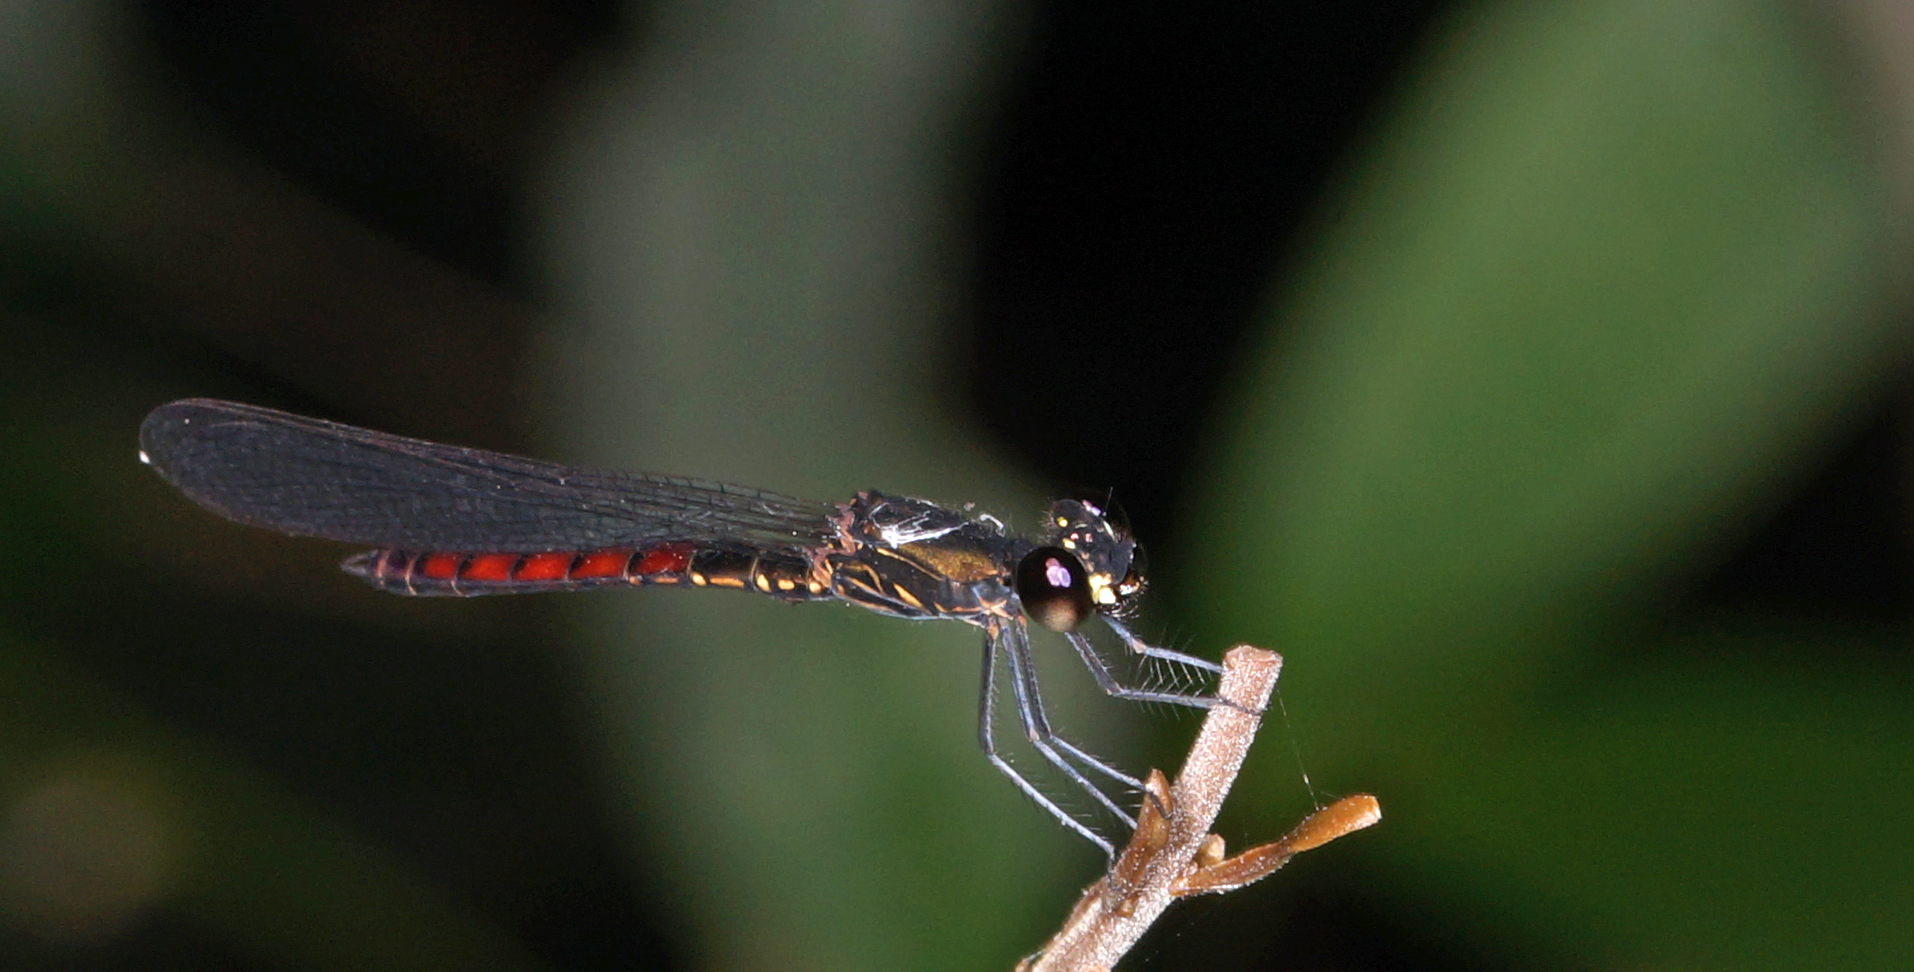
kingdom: Animalia
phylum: Arthropoda
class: Insecta
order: Odonata
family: Chlorocyphidae
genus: Libellago
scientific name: Libellago hyalina
